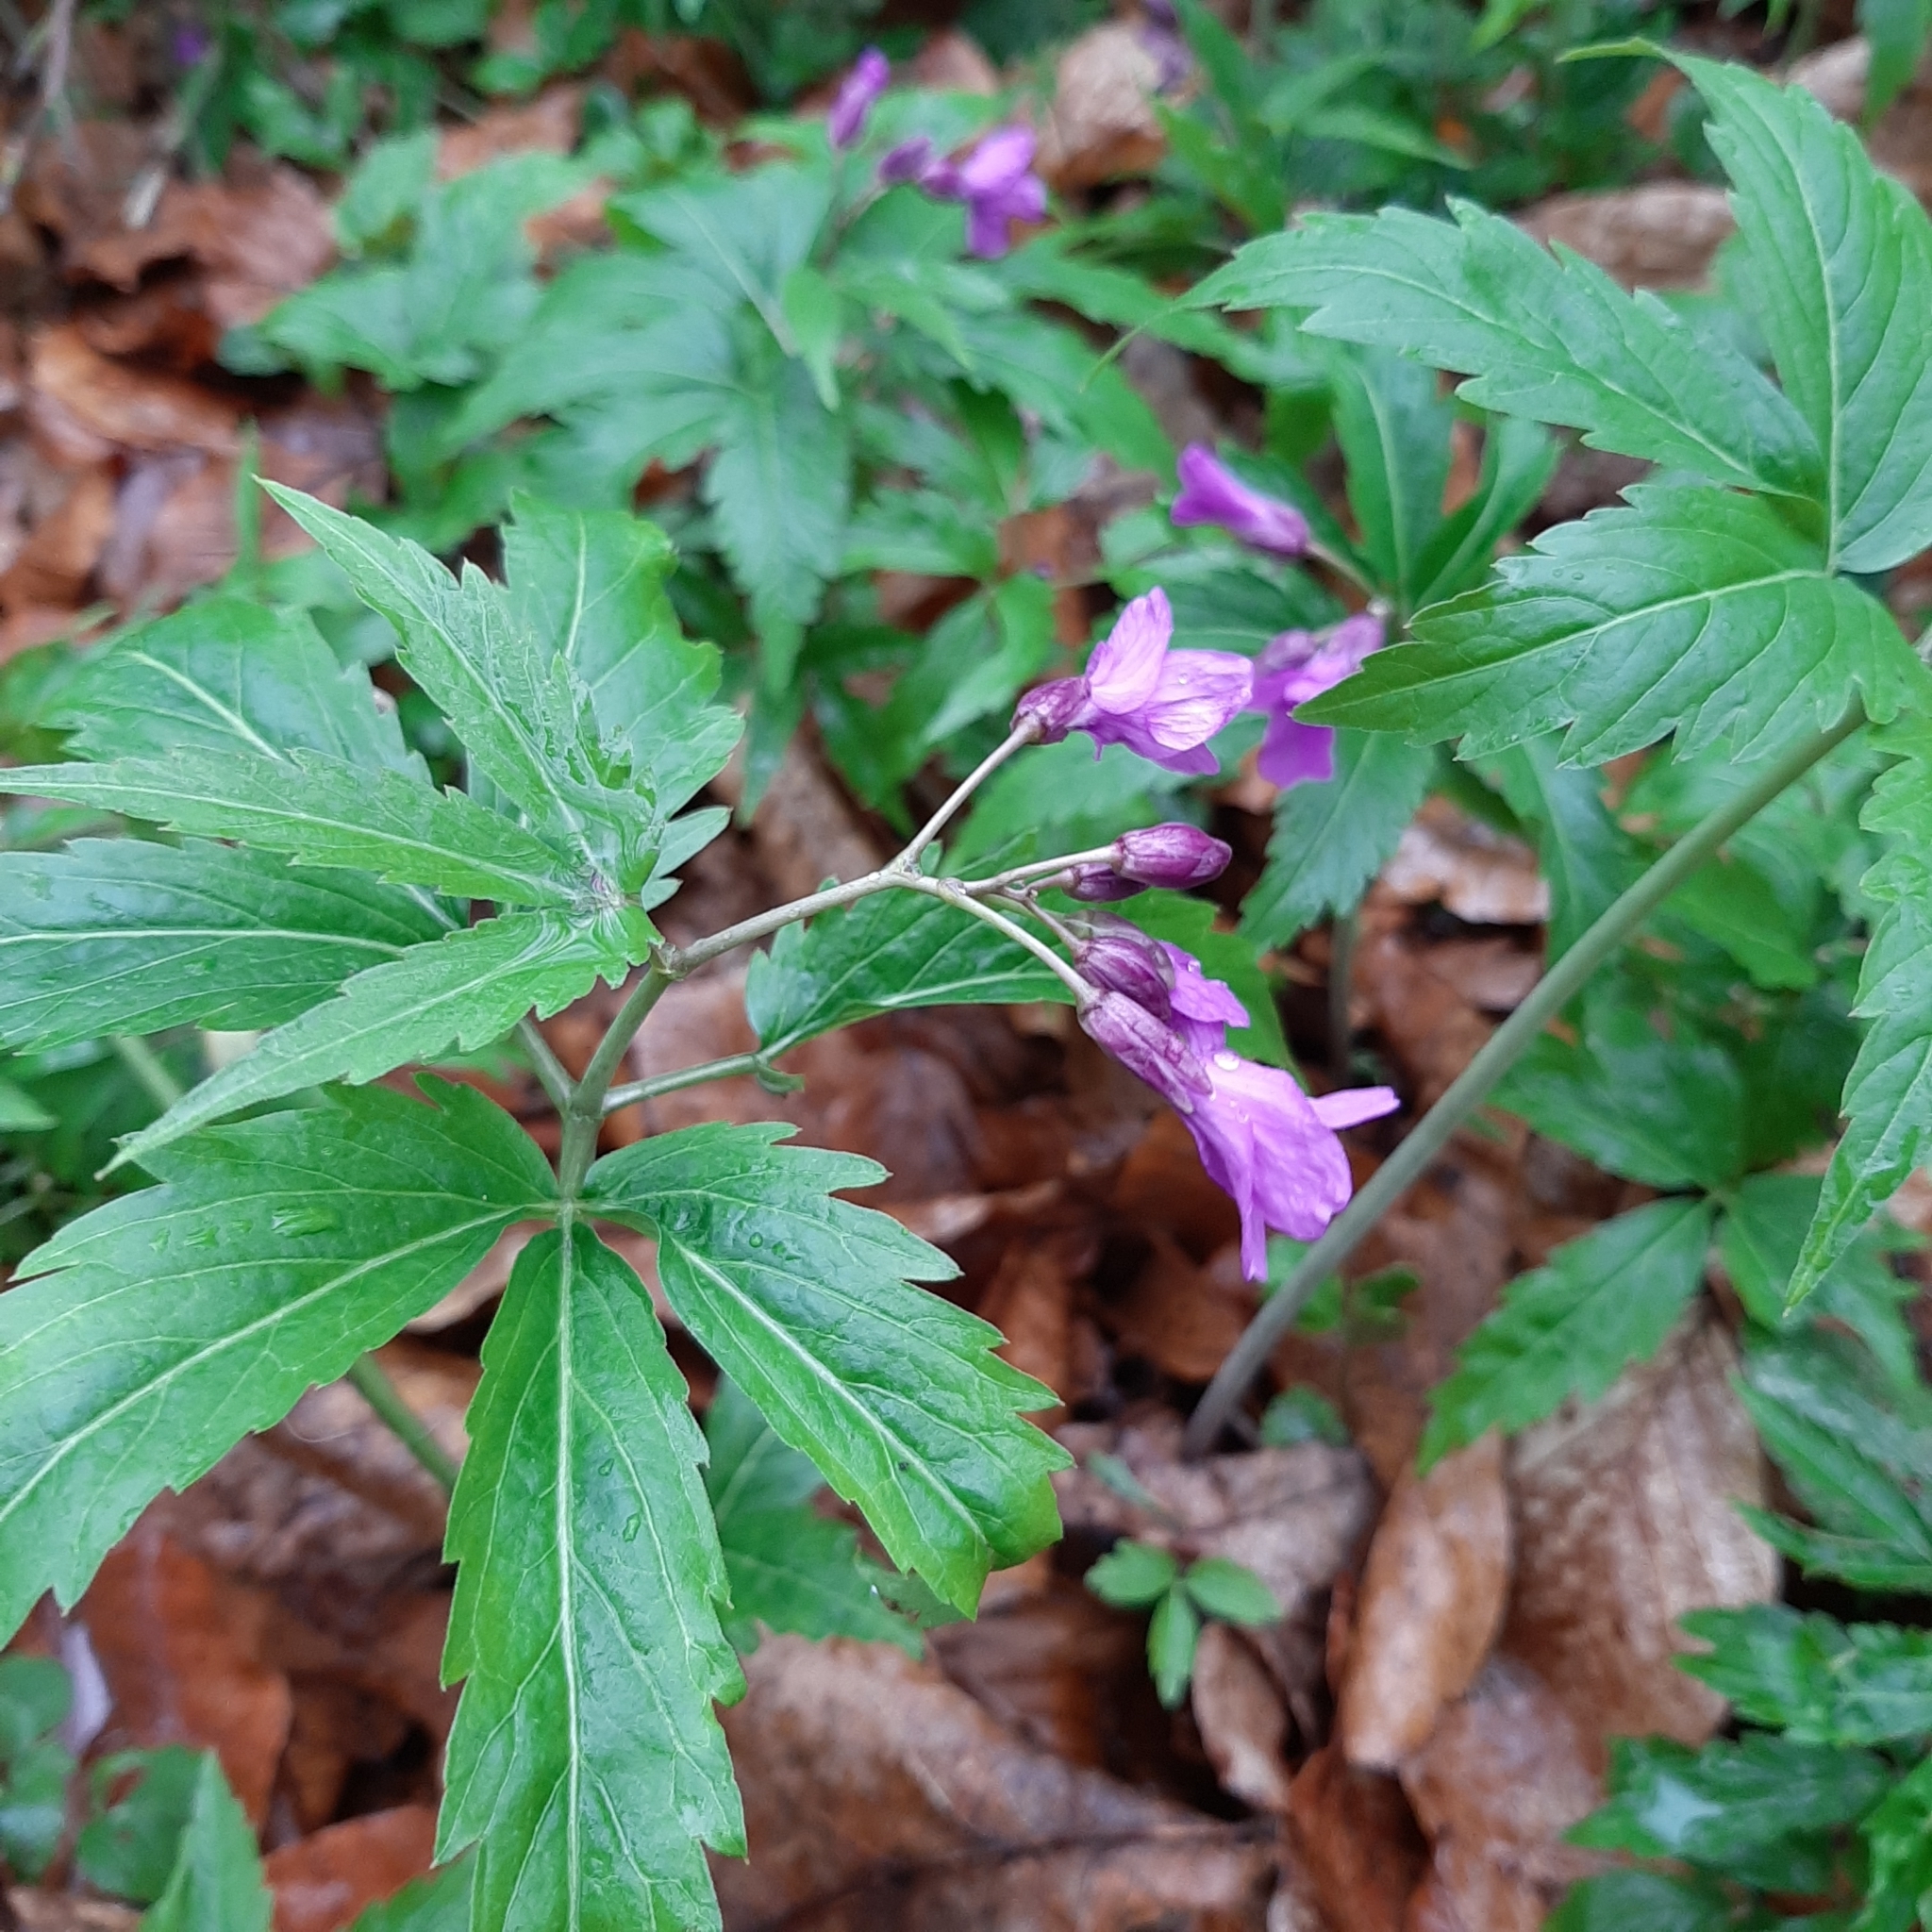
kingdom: Plantae
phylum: Tracheophyta
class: Magnoliopsida
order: Brassicales
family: Brassicaceae
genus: Cardamine
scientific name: Cardamine glanduligera
